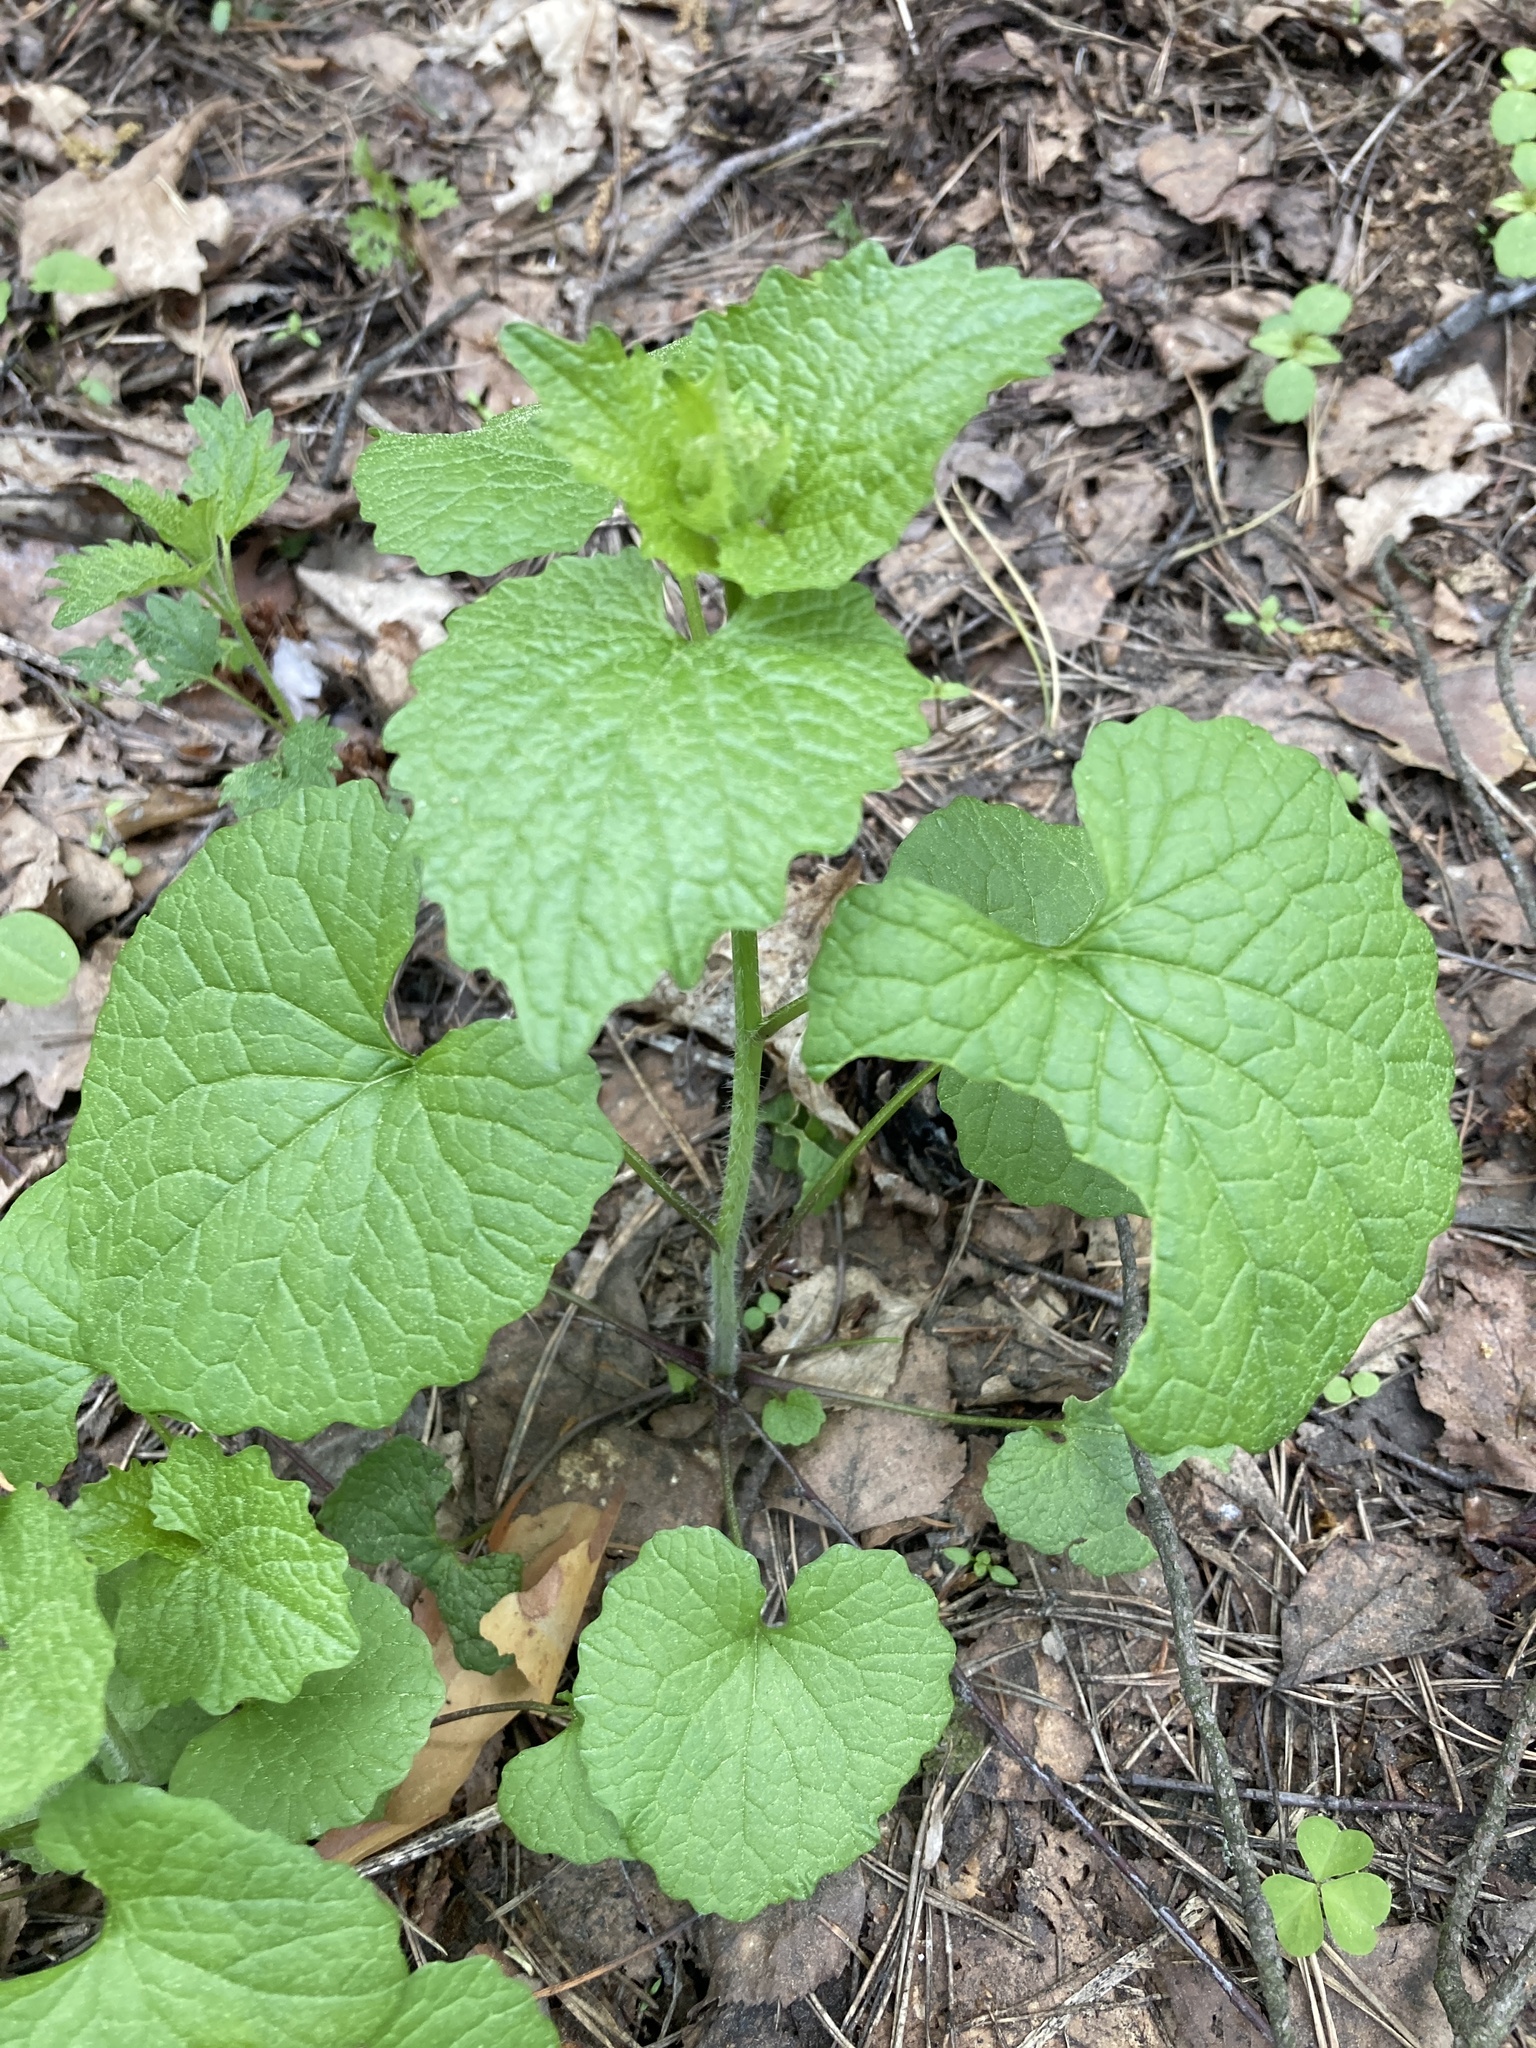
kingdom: Plantae
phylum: Tracheophyta
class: Magnoliopsida
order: Brassicales
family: Brassicaceae
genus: Alliaria
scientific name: Alliaria petiolata
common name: Garlic mustard
